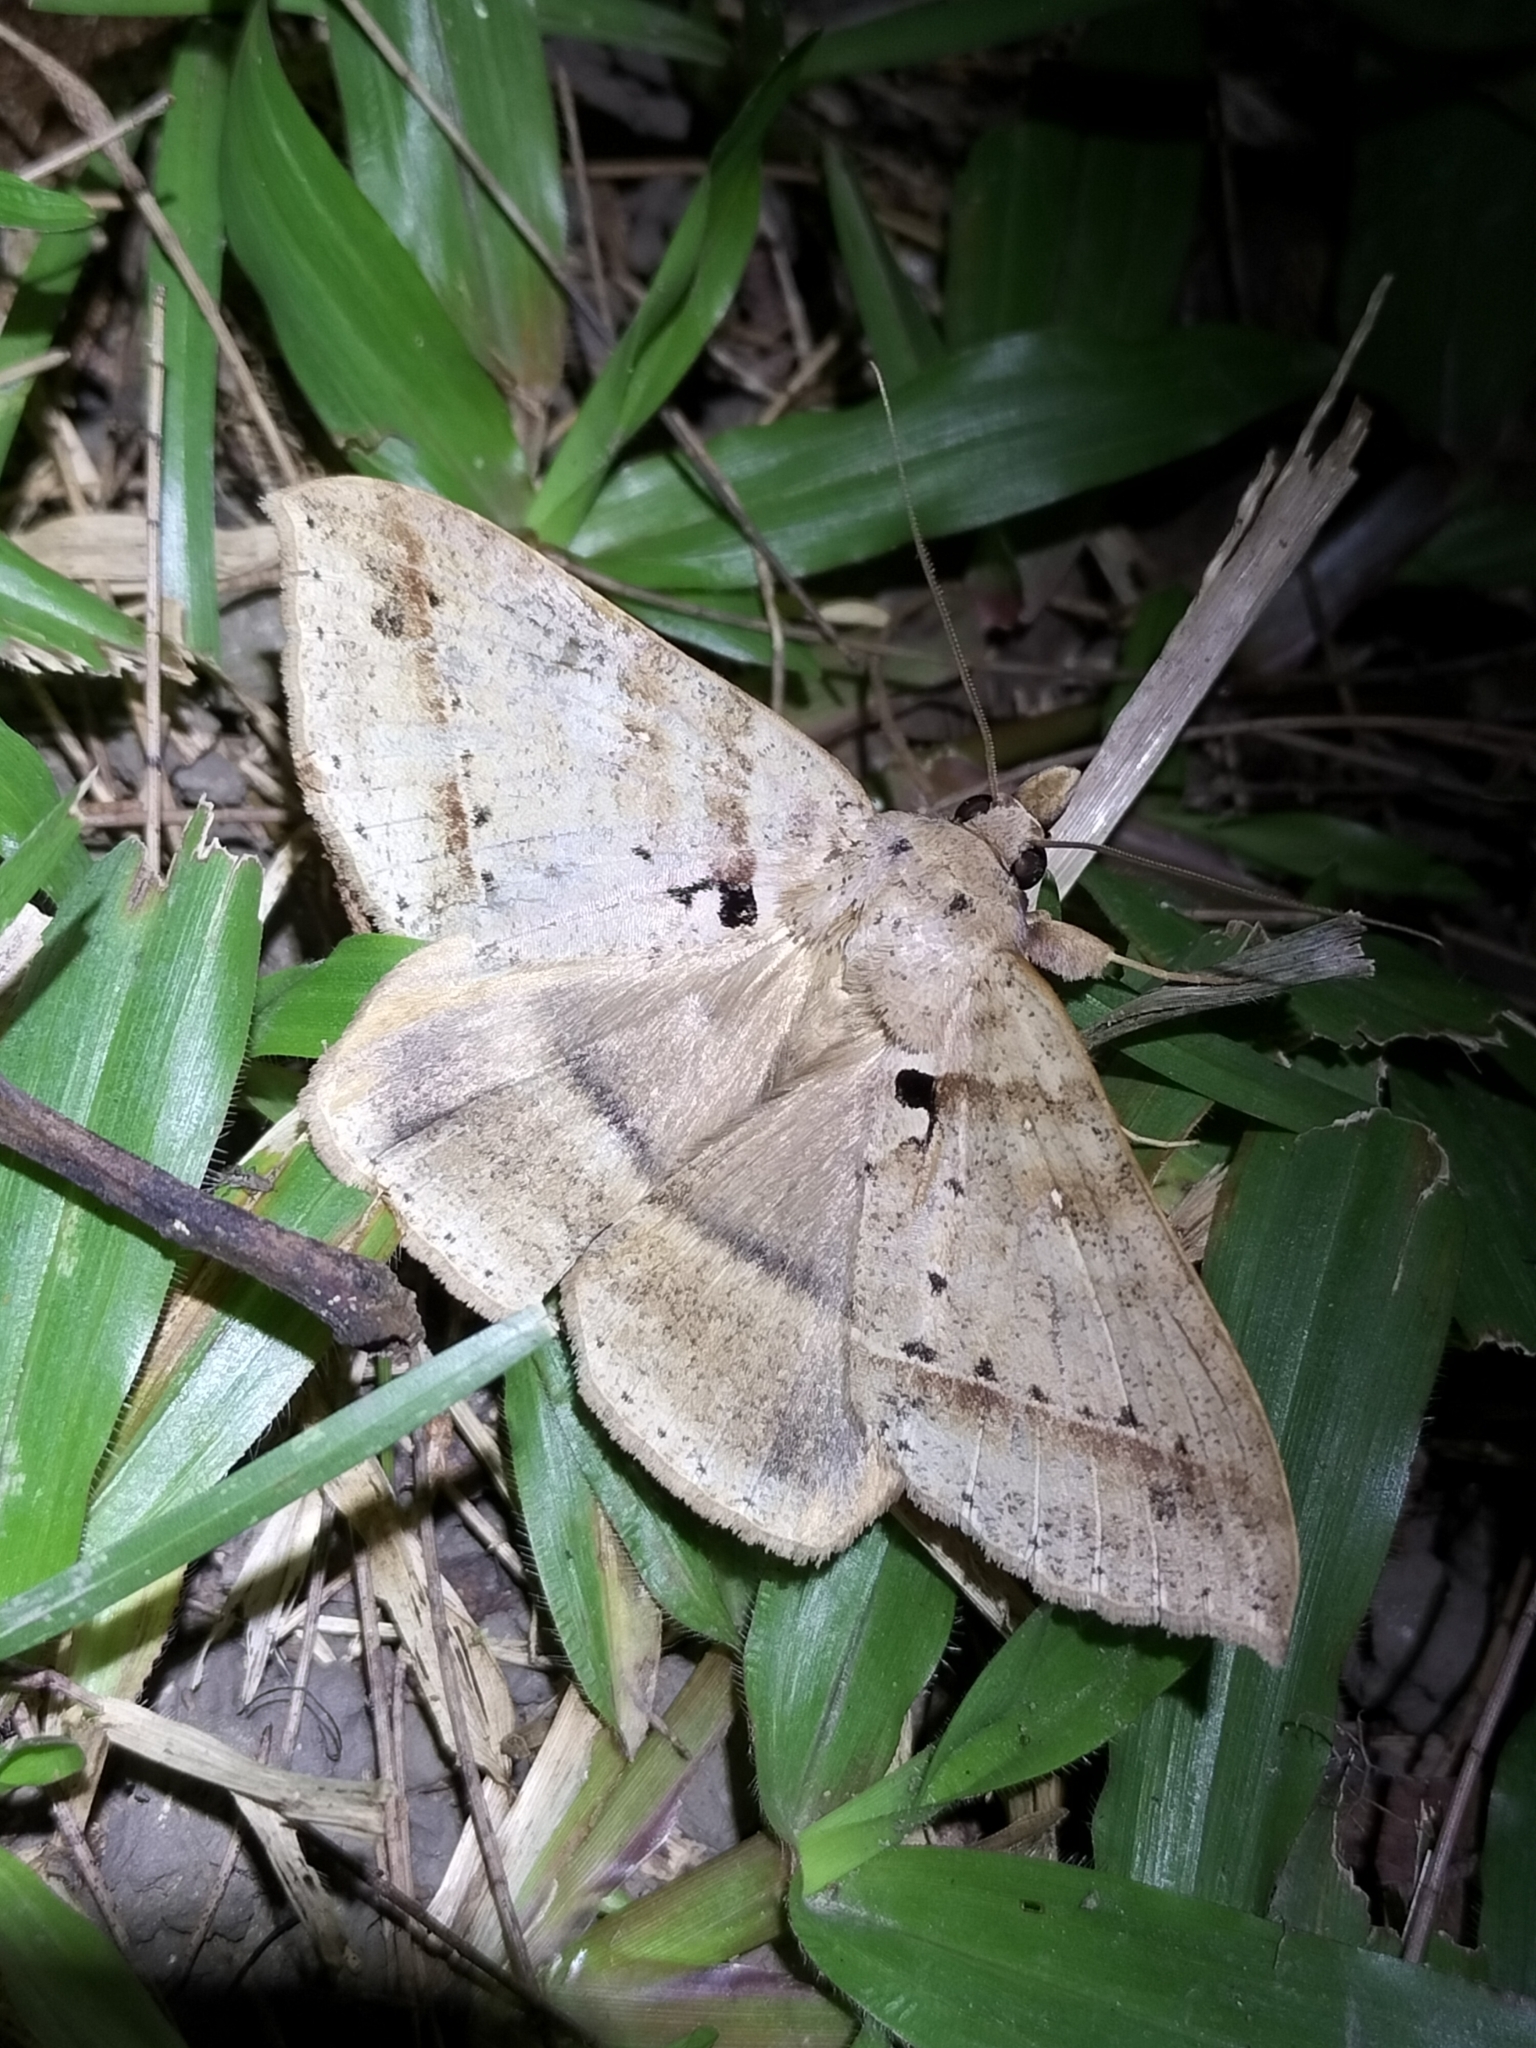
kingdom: Animalia
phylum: Arthropoda
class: Insecta
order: Lepidoptera
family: Erebidae
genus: Polydesmiola
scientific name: Polydesmiola meekii
